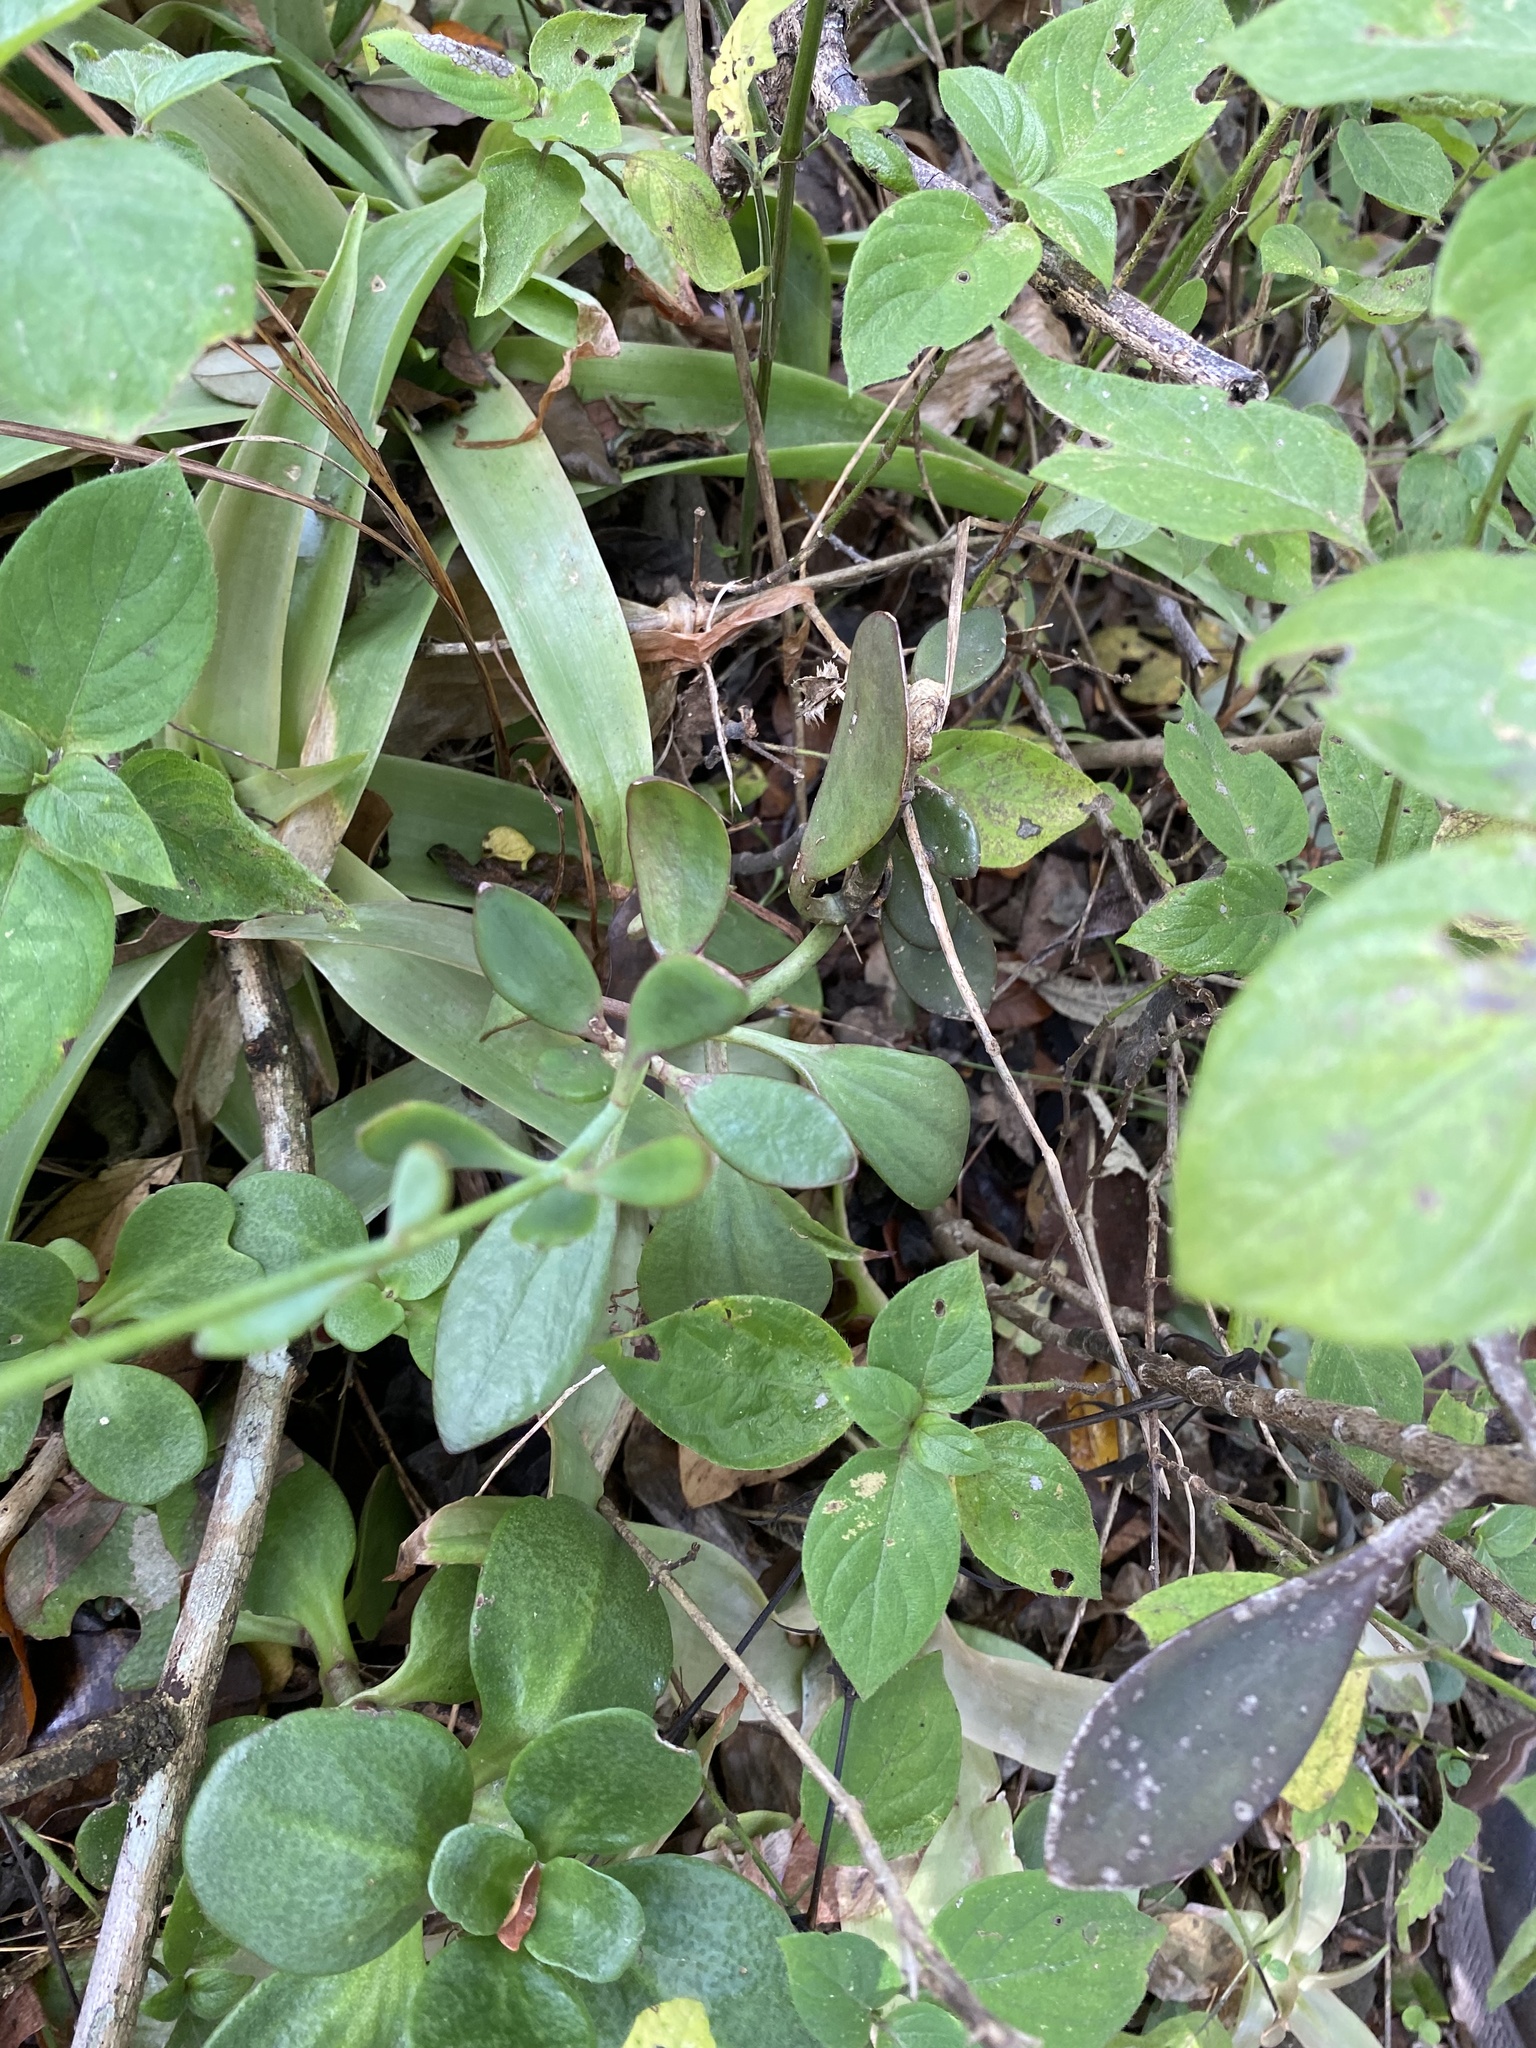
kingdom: Plantae
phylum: Tracheophyta
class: Magnoliopsida
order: Saxifragales
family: Crassulaceae
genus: Kalanchoe
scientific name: Kalanchoe rotundifolia
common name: Common kalanchoe
